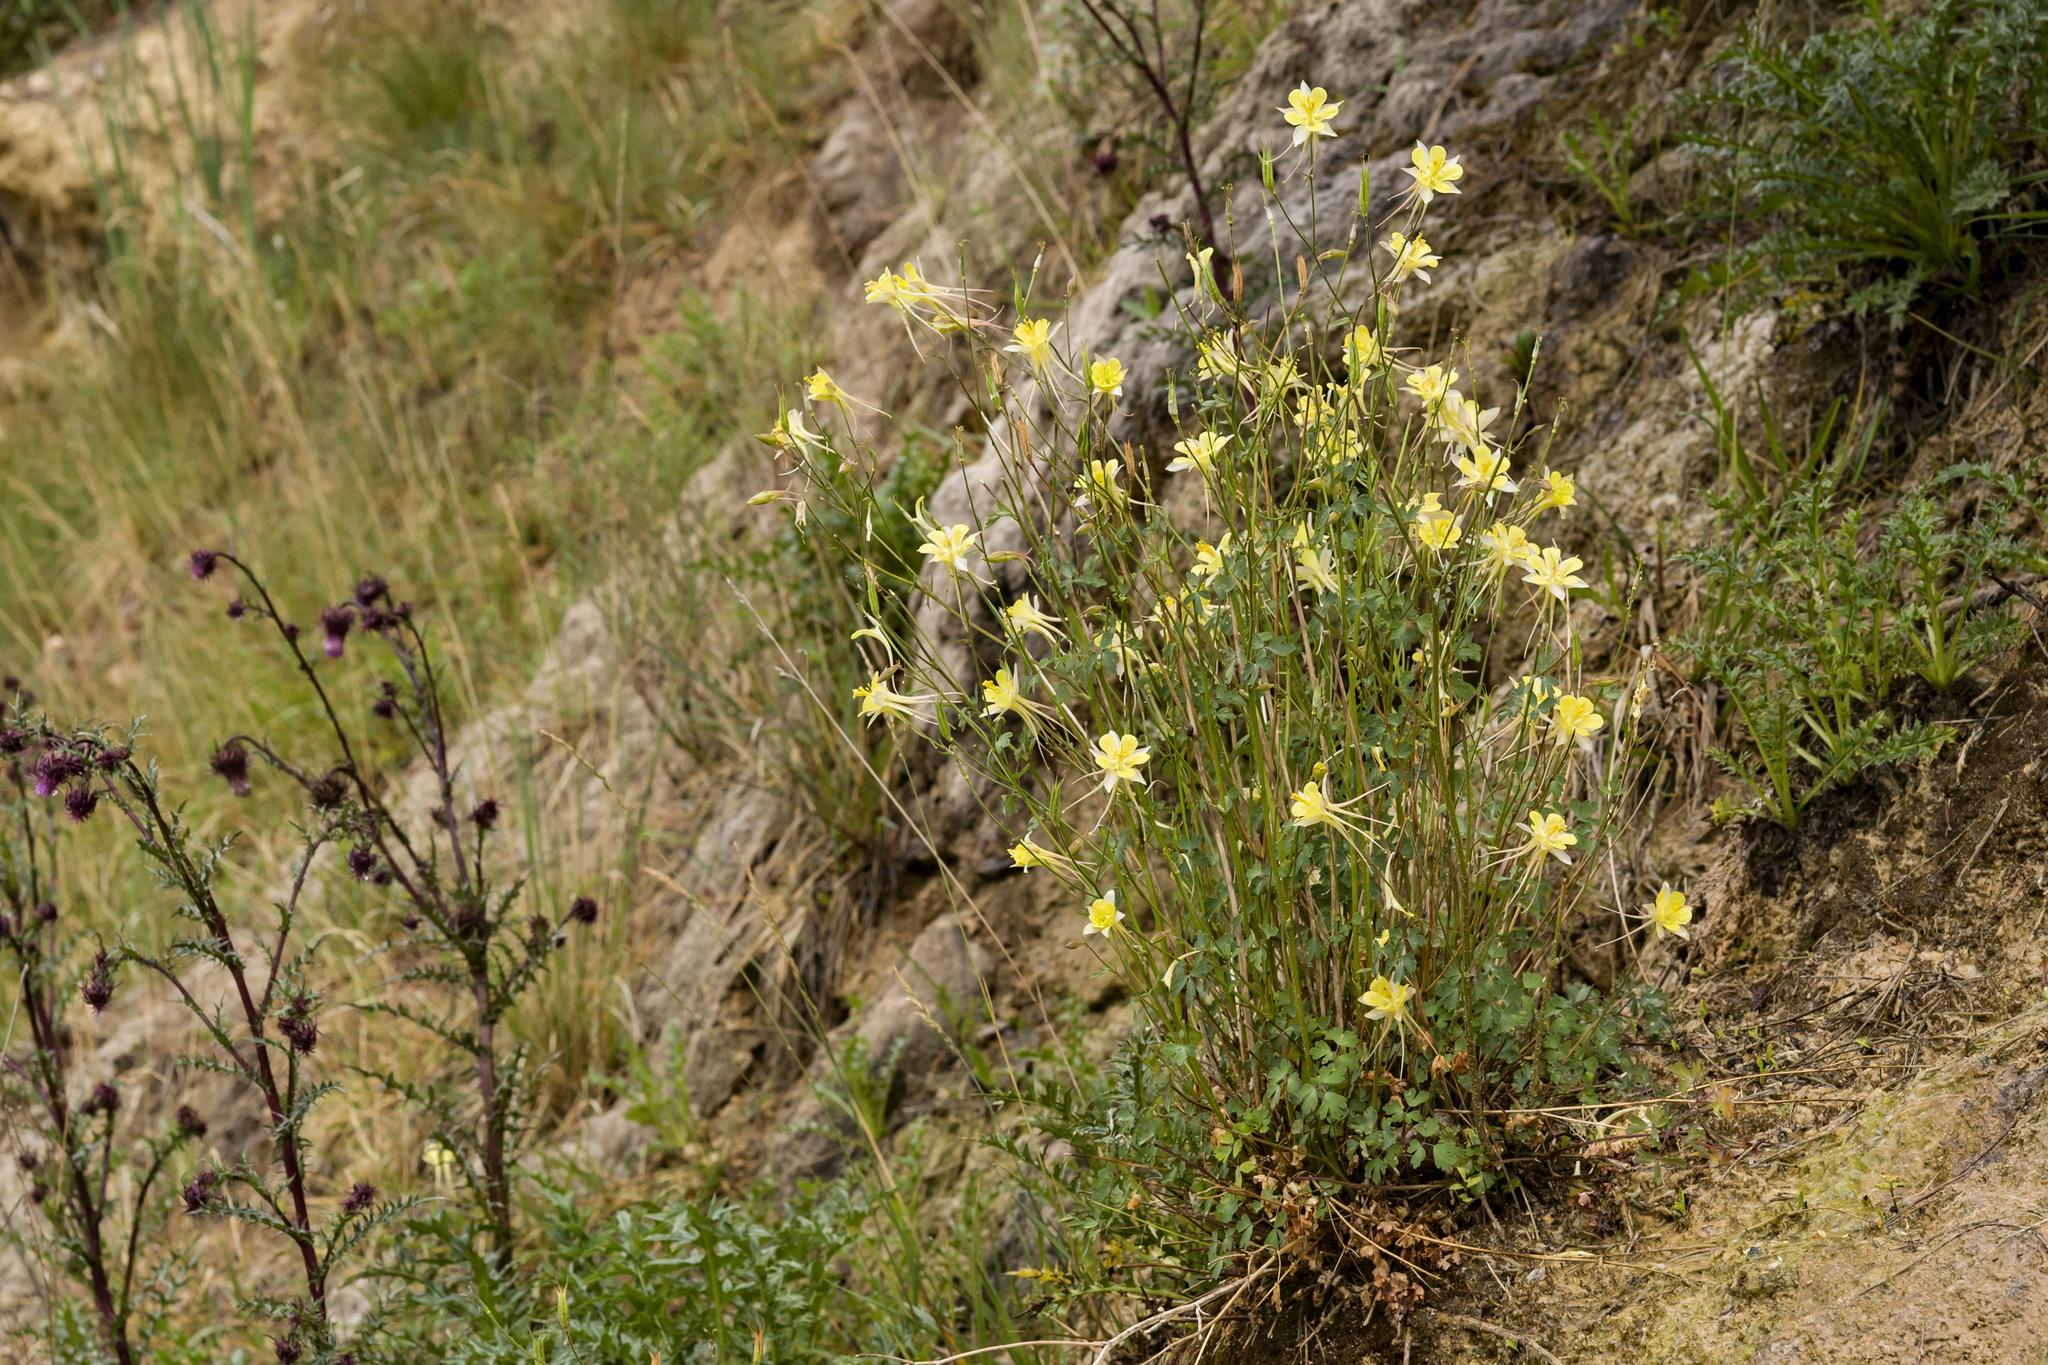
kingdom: Plantae
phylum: Tracheophyta
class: Magnoliopsida
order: Ranunculales
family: Ranunculaceae
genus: Aquilegia
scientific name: Aquilegia chrysantha
